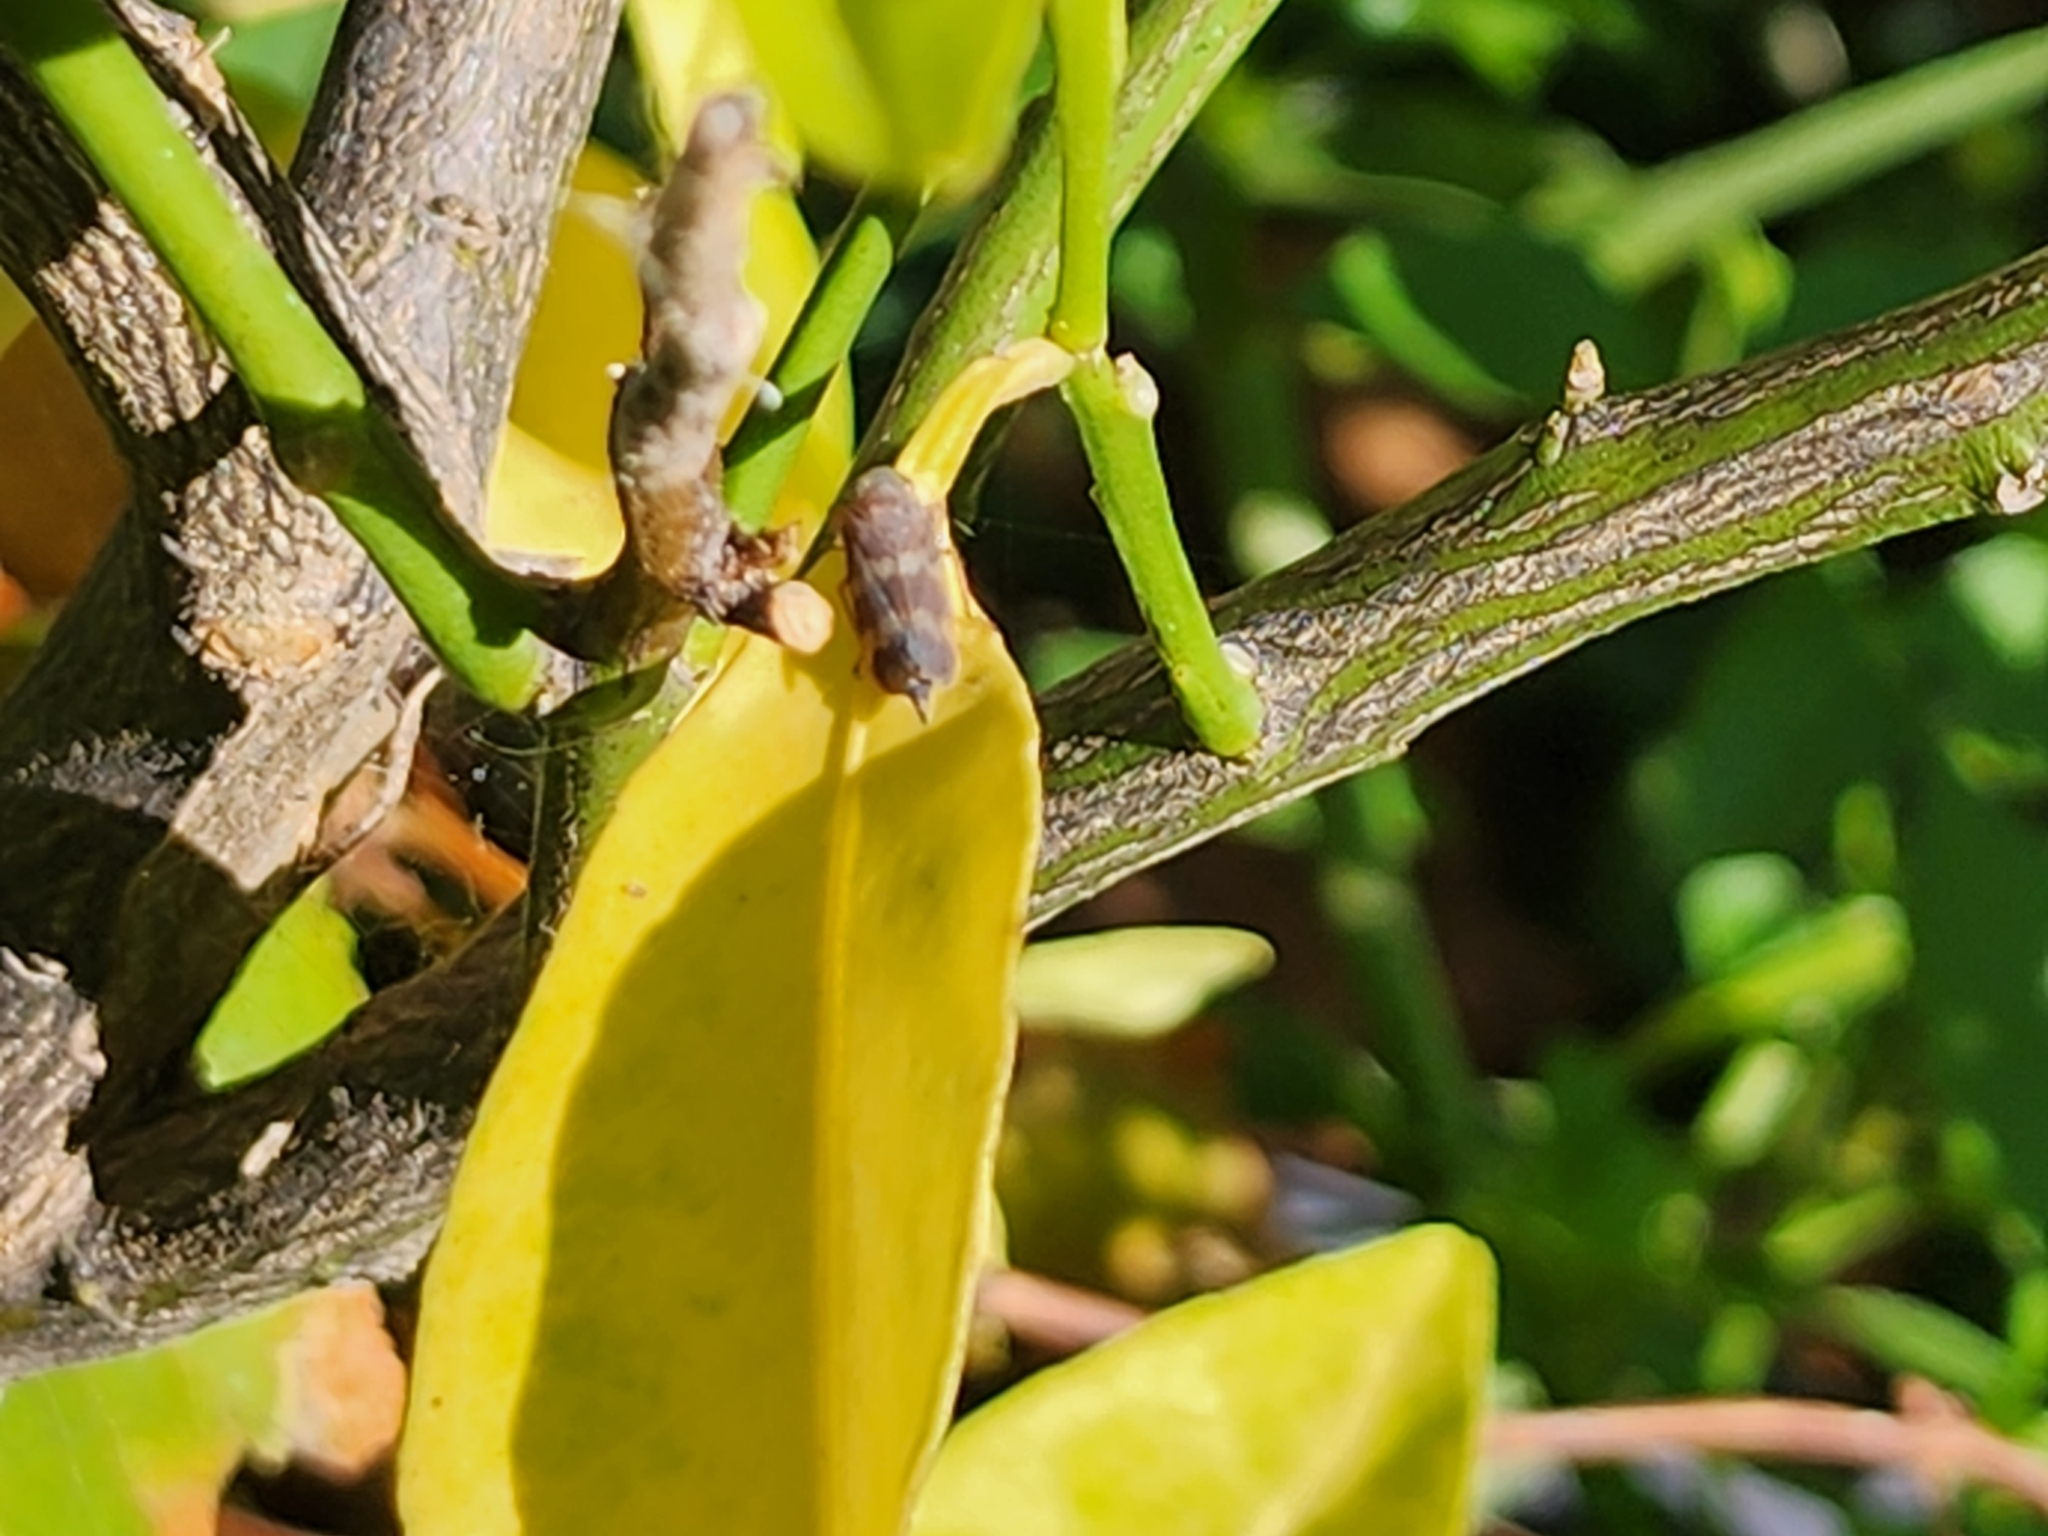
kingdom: Animalia
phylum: Arthropoda
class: Insecta
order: Hemiptera
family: Cicadellidae
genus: Jikradia
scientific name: Jikradia olitoria
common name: Coppery leafhopper
